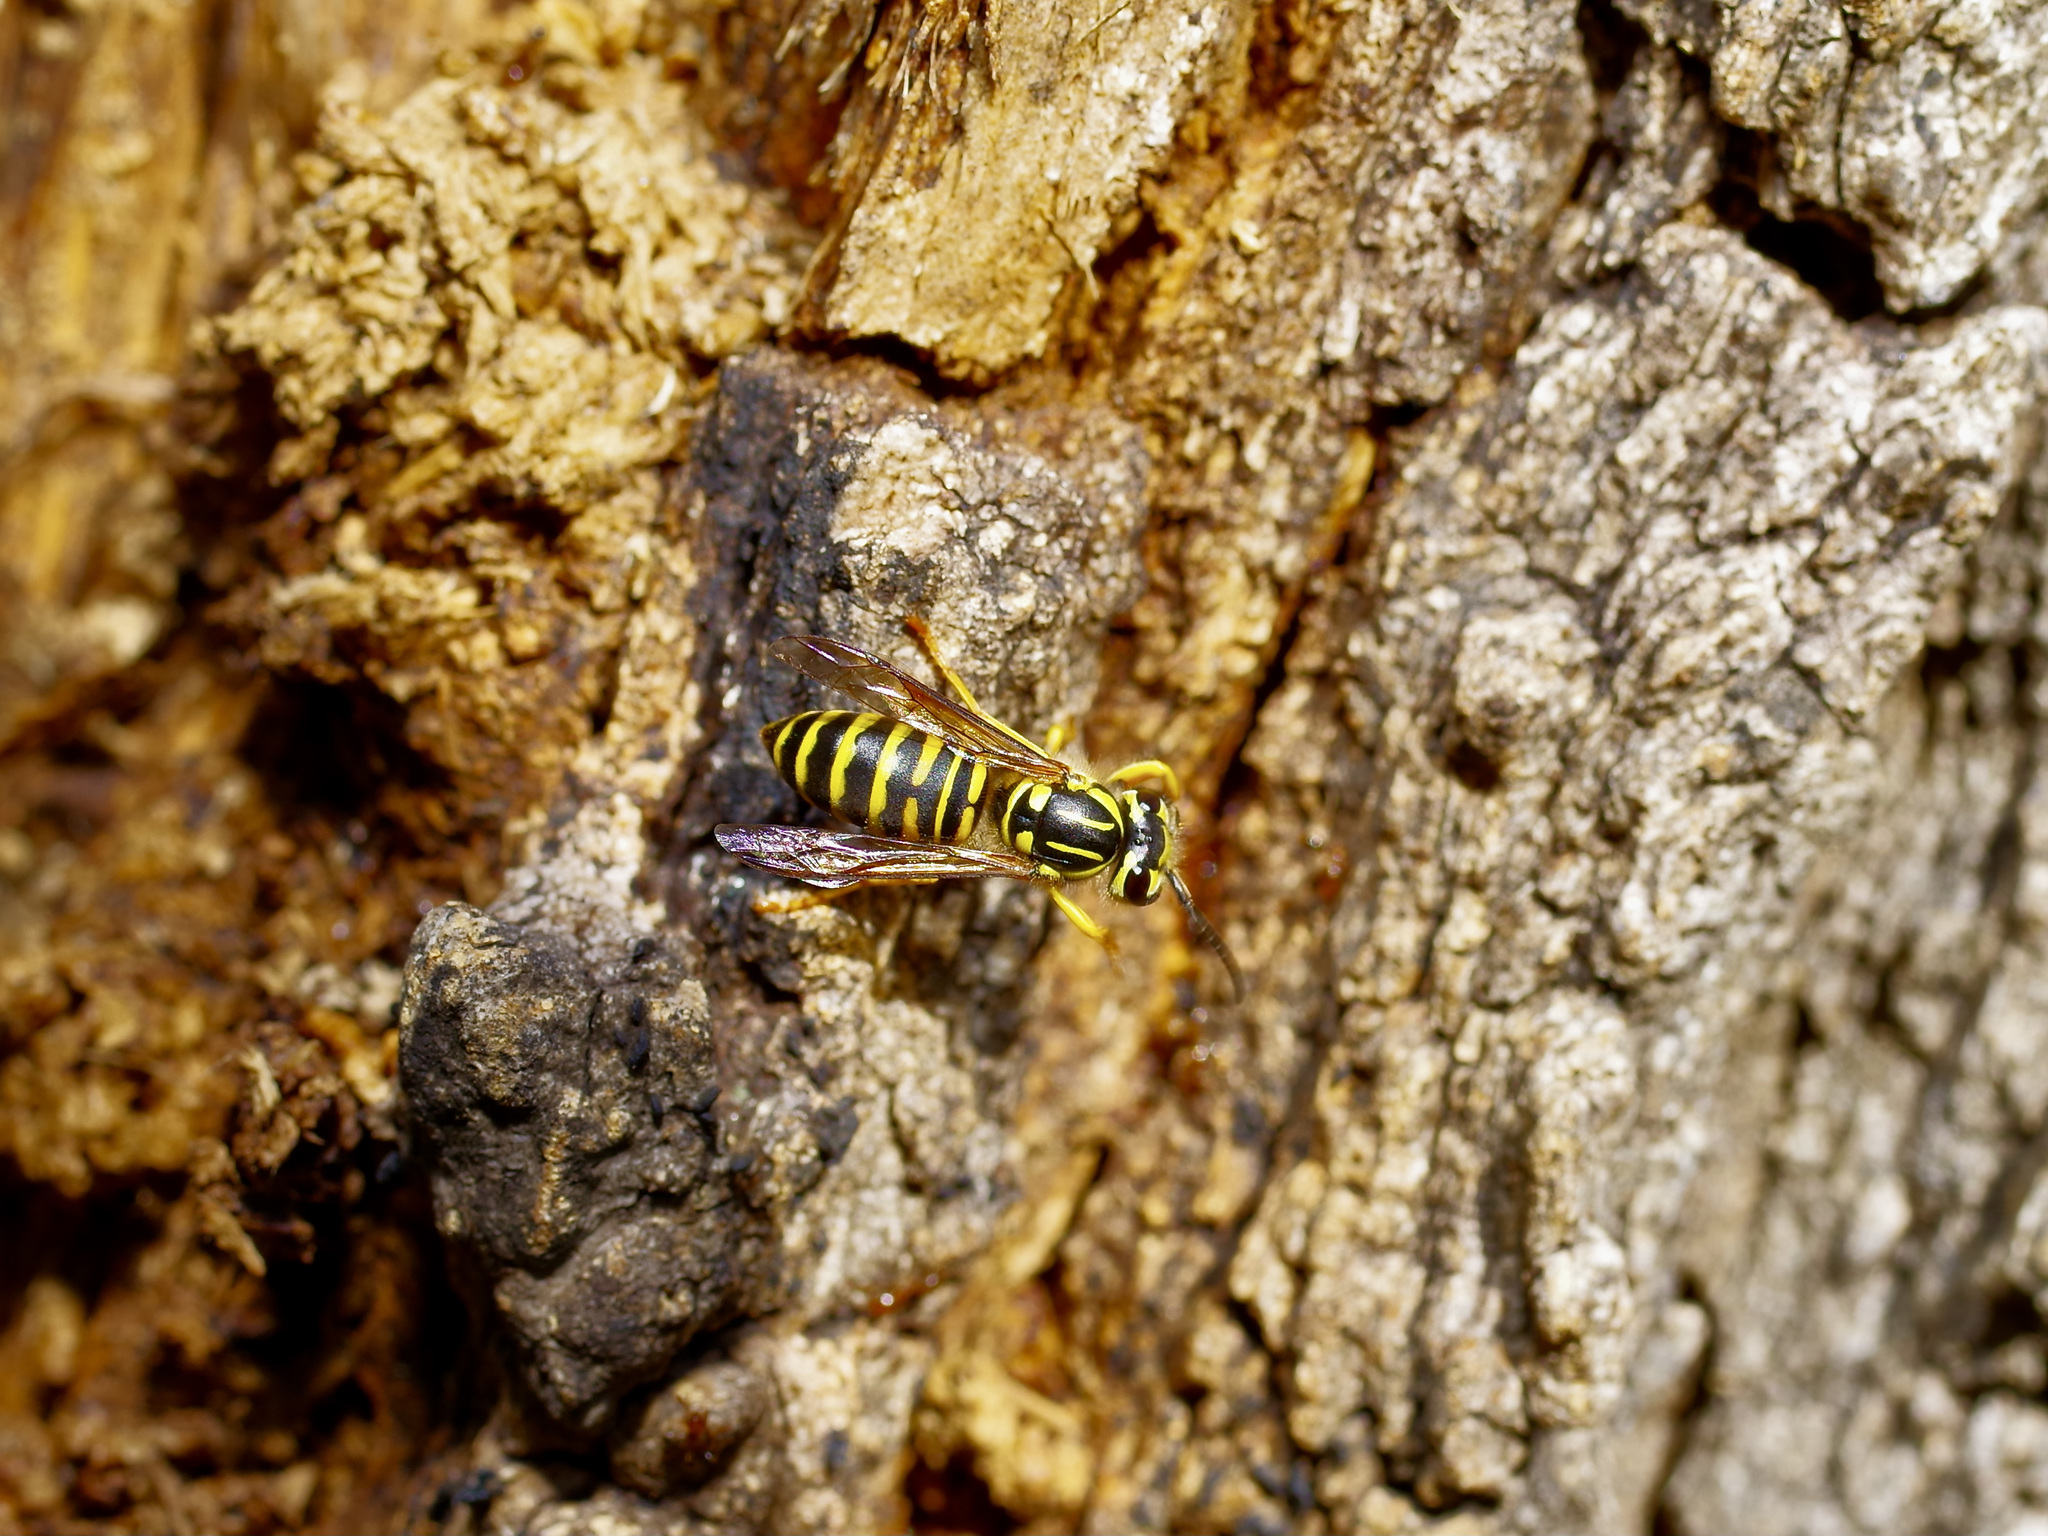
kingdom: Animalia
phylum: Arthropoda
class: Insecta
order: Hymenoptera
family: Vespidae
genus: Vespula
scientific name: Vespula squamosa
